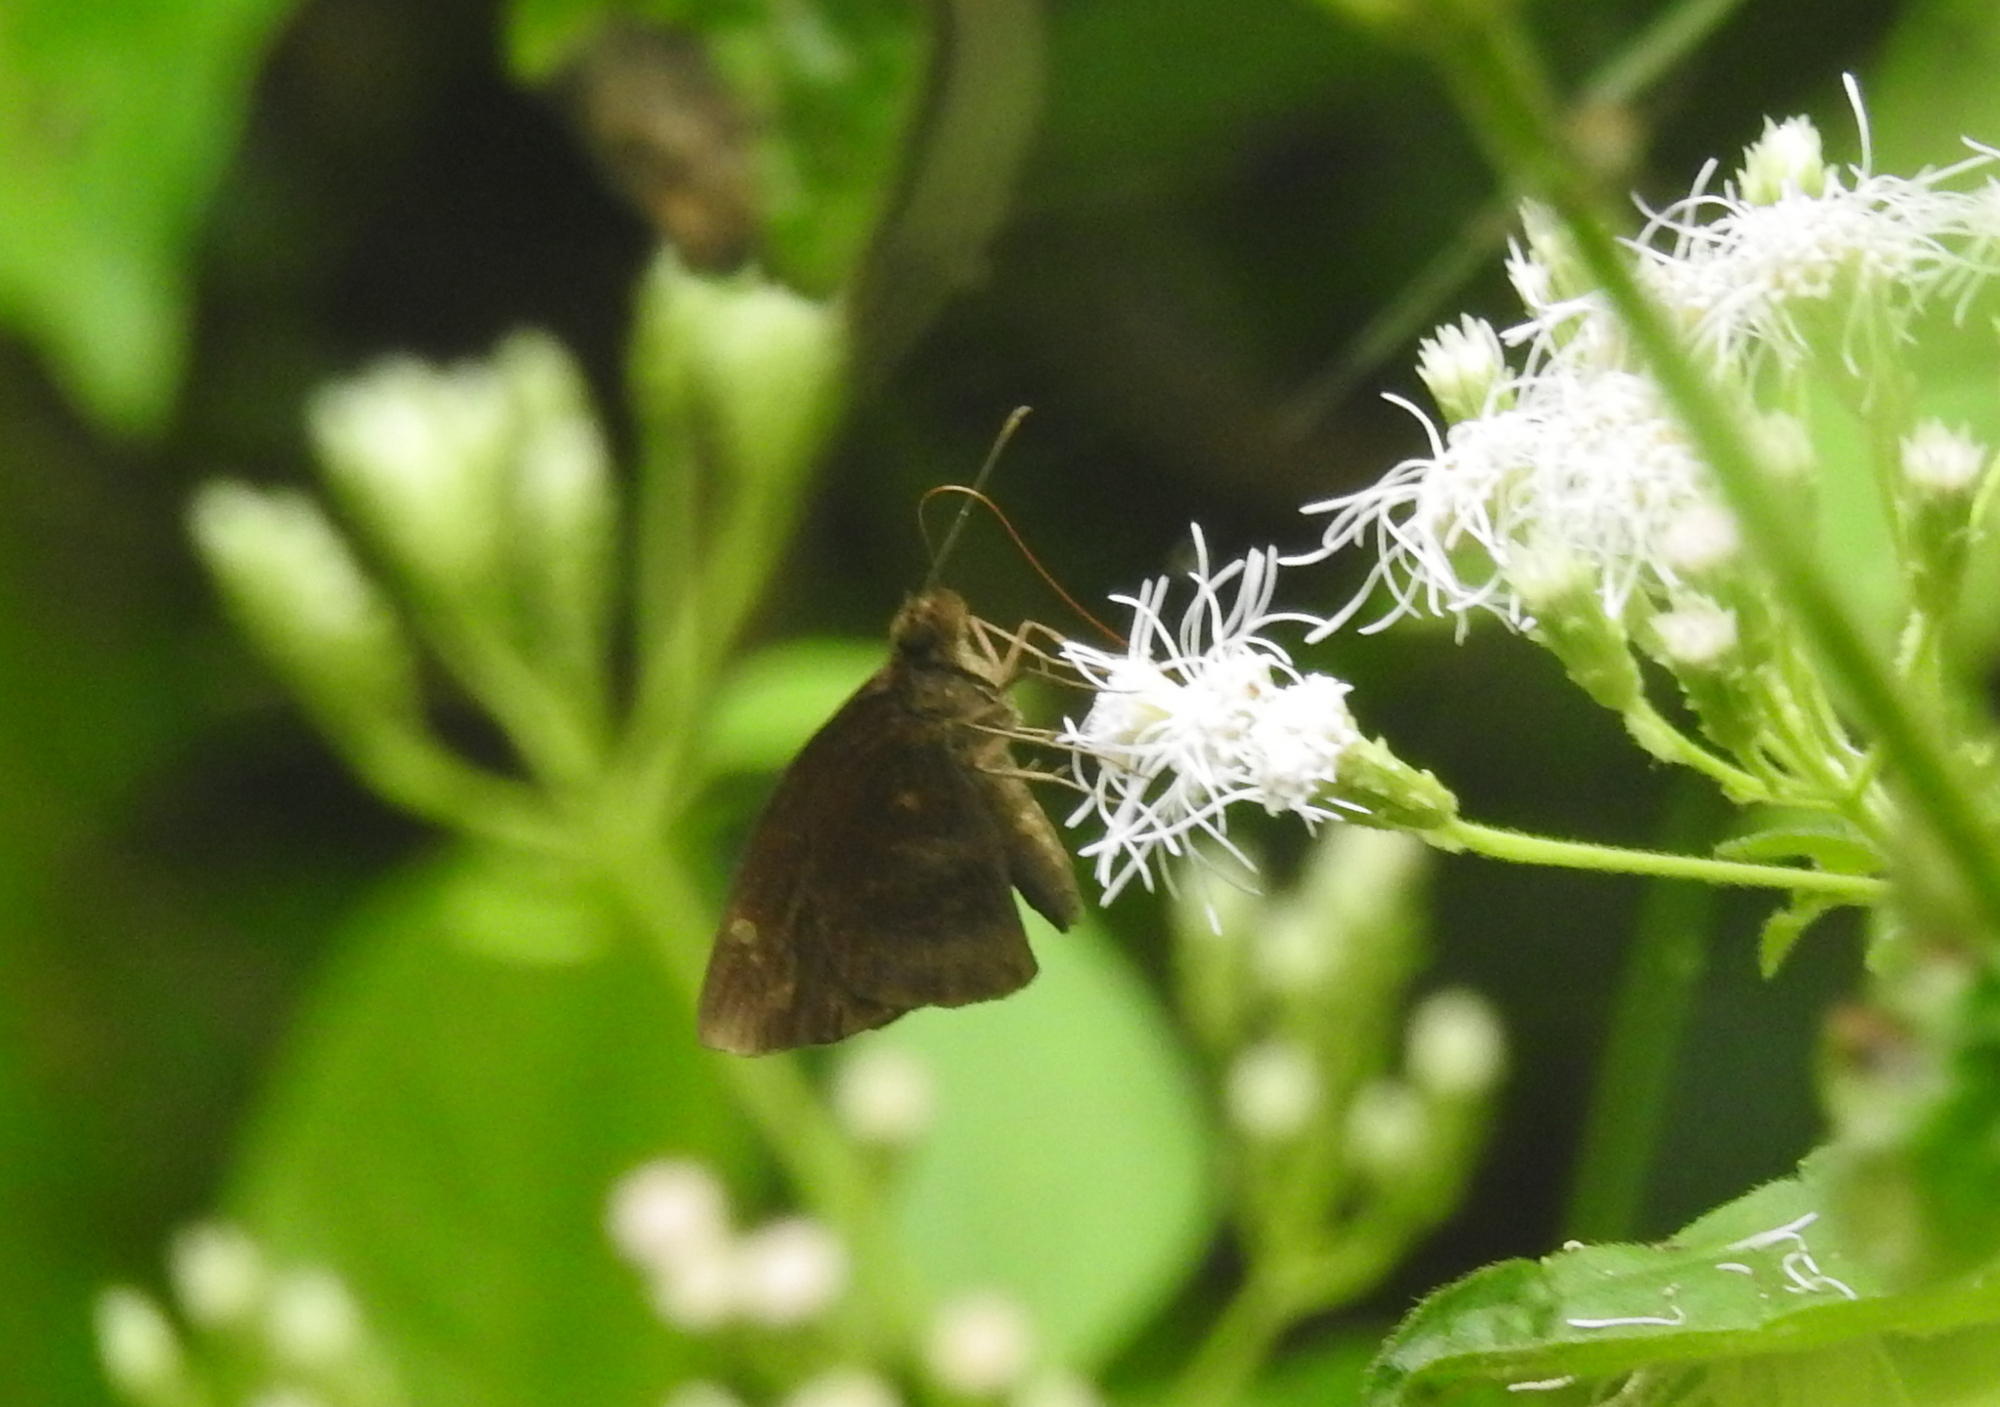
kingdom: Animalia
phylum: Arthropoda
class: Insecta
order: Lepidoptera
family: Hesperiidae
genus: Psolos
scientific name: Psolos fuligo
